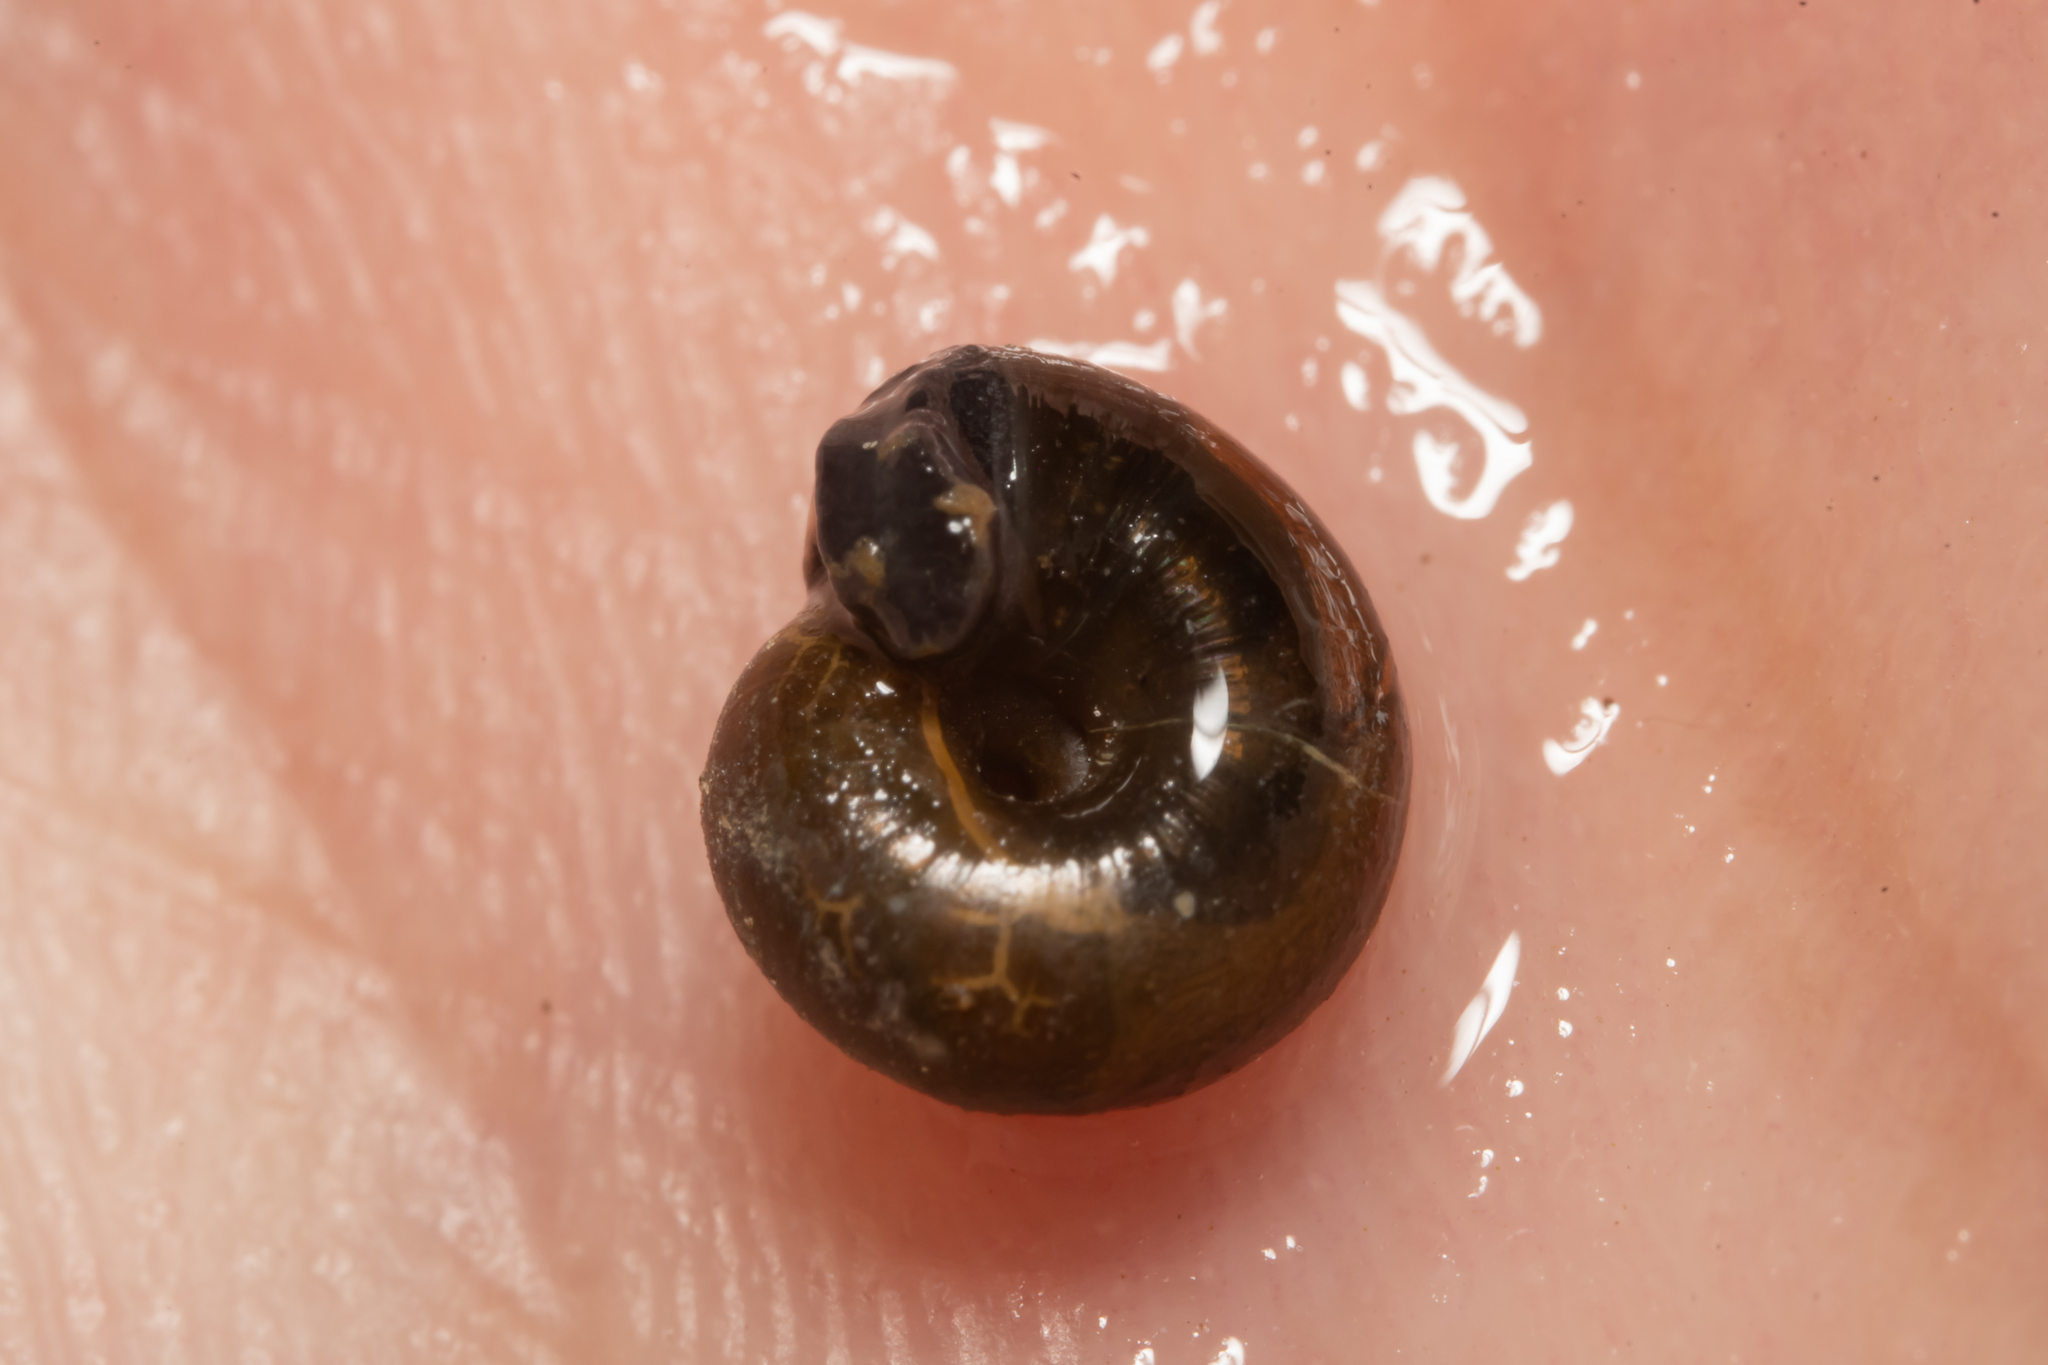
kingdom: Animalia
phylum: Mollusca
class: Gastropoda
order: Stylommatophora
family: Gastrodontidae
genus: Zonitoides
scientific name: Zonitoides nitidus
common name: Shiny glass snail
